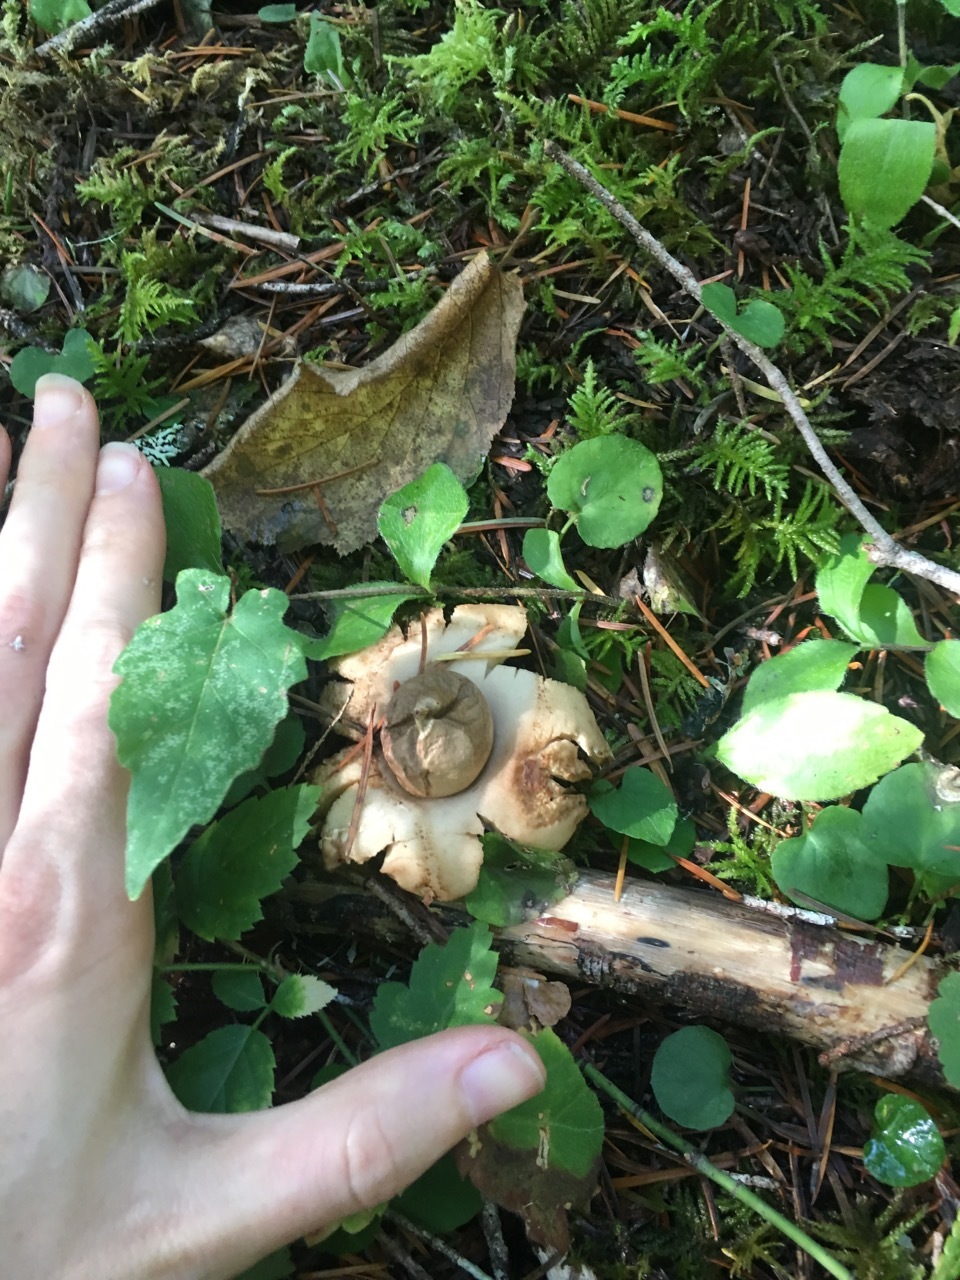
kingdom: Fungi
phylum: Basidiomycota
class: Agaricomycetes
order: Geastrales
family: Geastraceae
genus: Geastrum
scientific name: Geastrum saccatum
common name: Rounded earthstar
